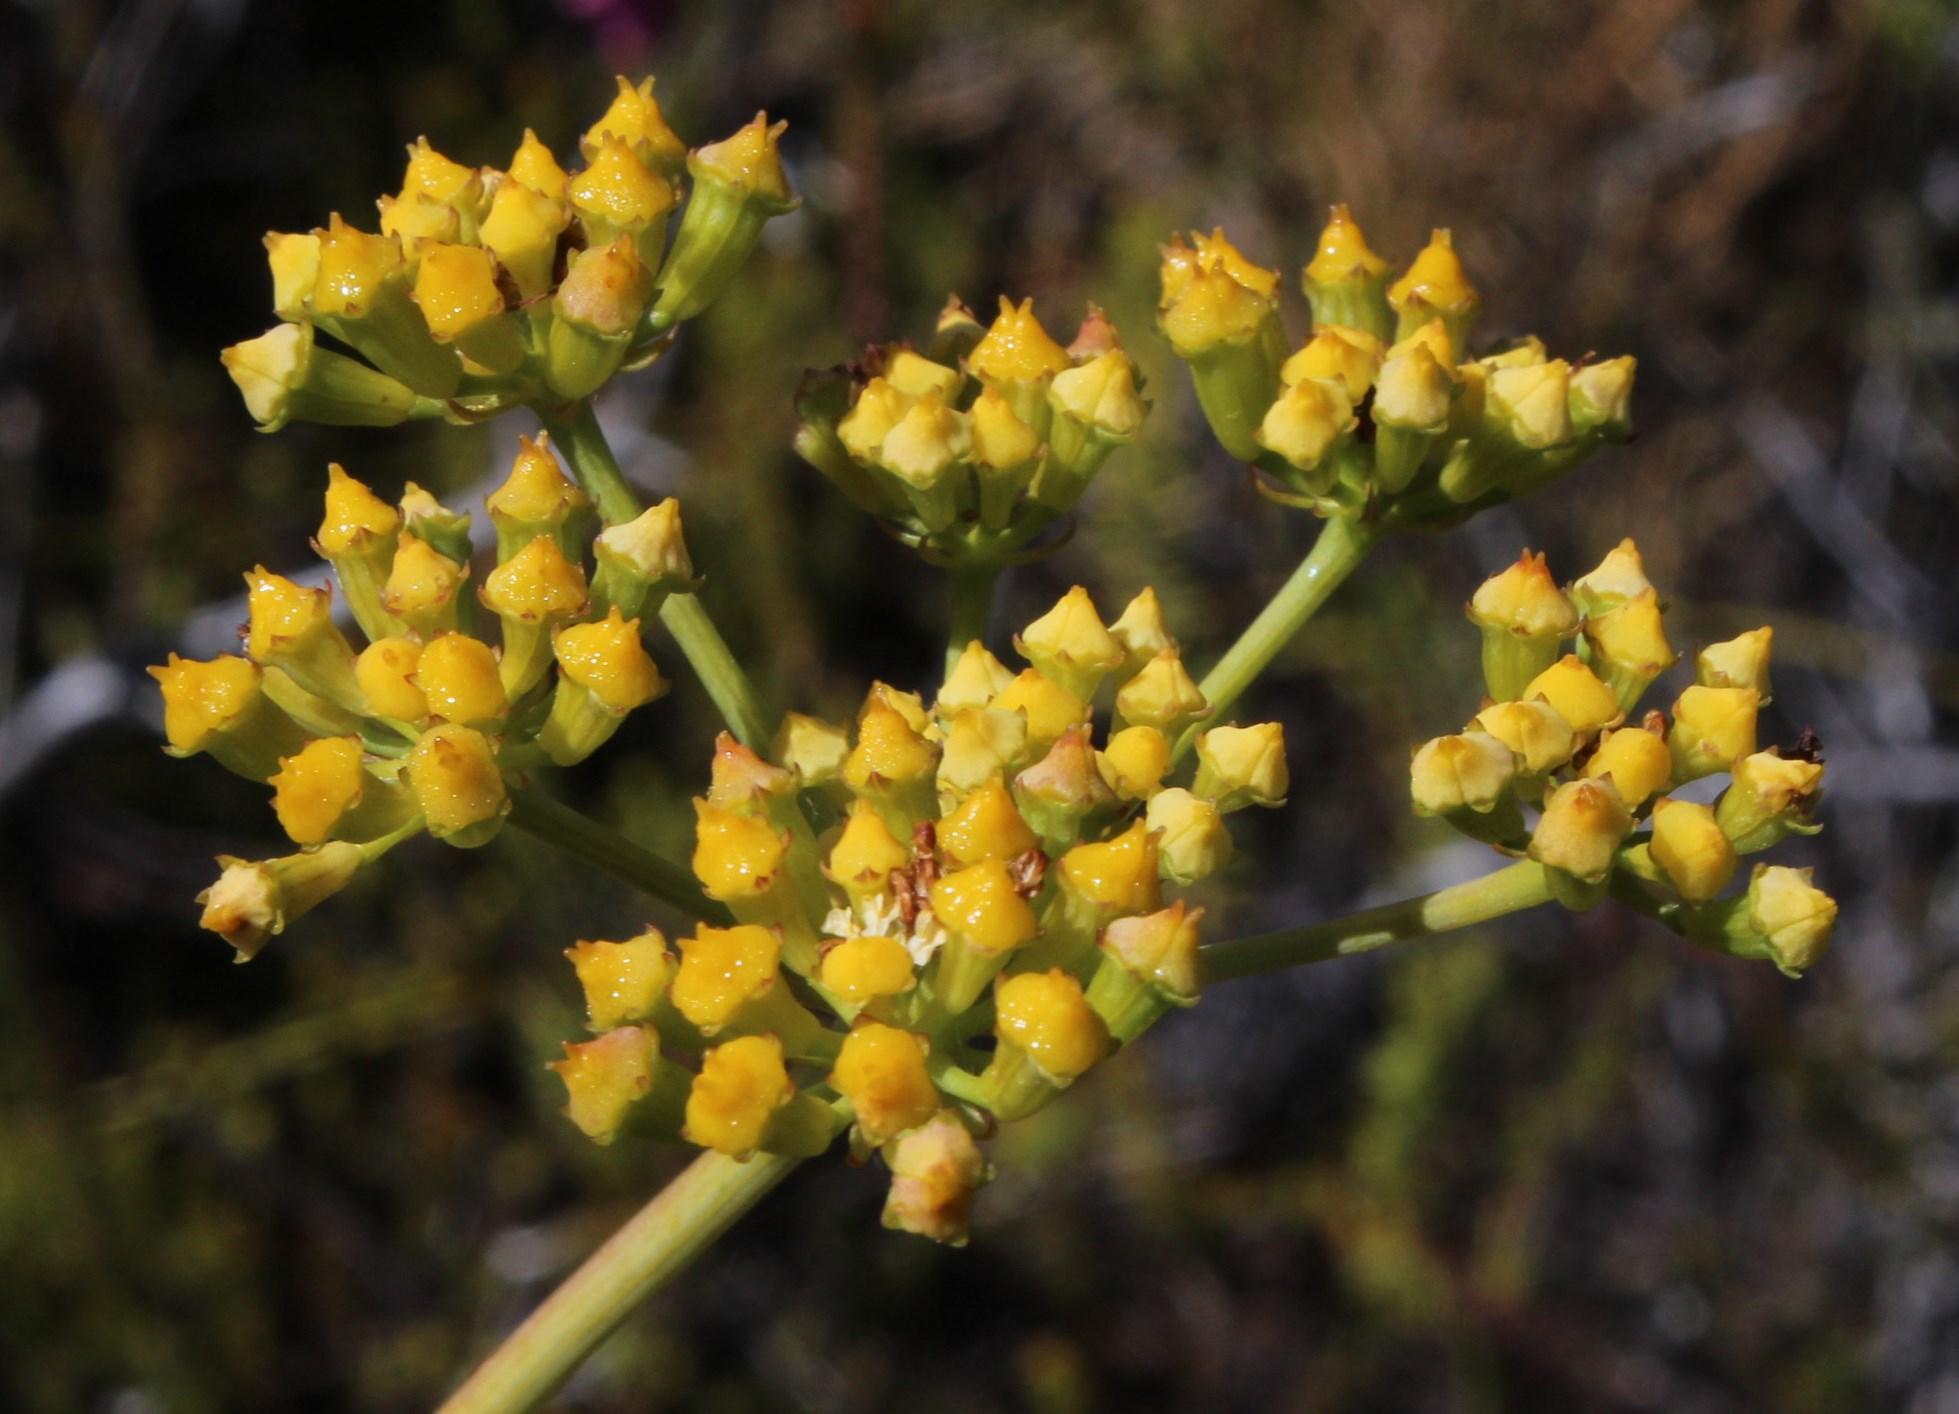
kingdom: Plantae
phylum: Tracheophyta
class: Magnoliopsida
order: Apiales
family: Apiaceae
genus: Lichtensteinia
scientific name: Lichtensteinia lacera
